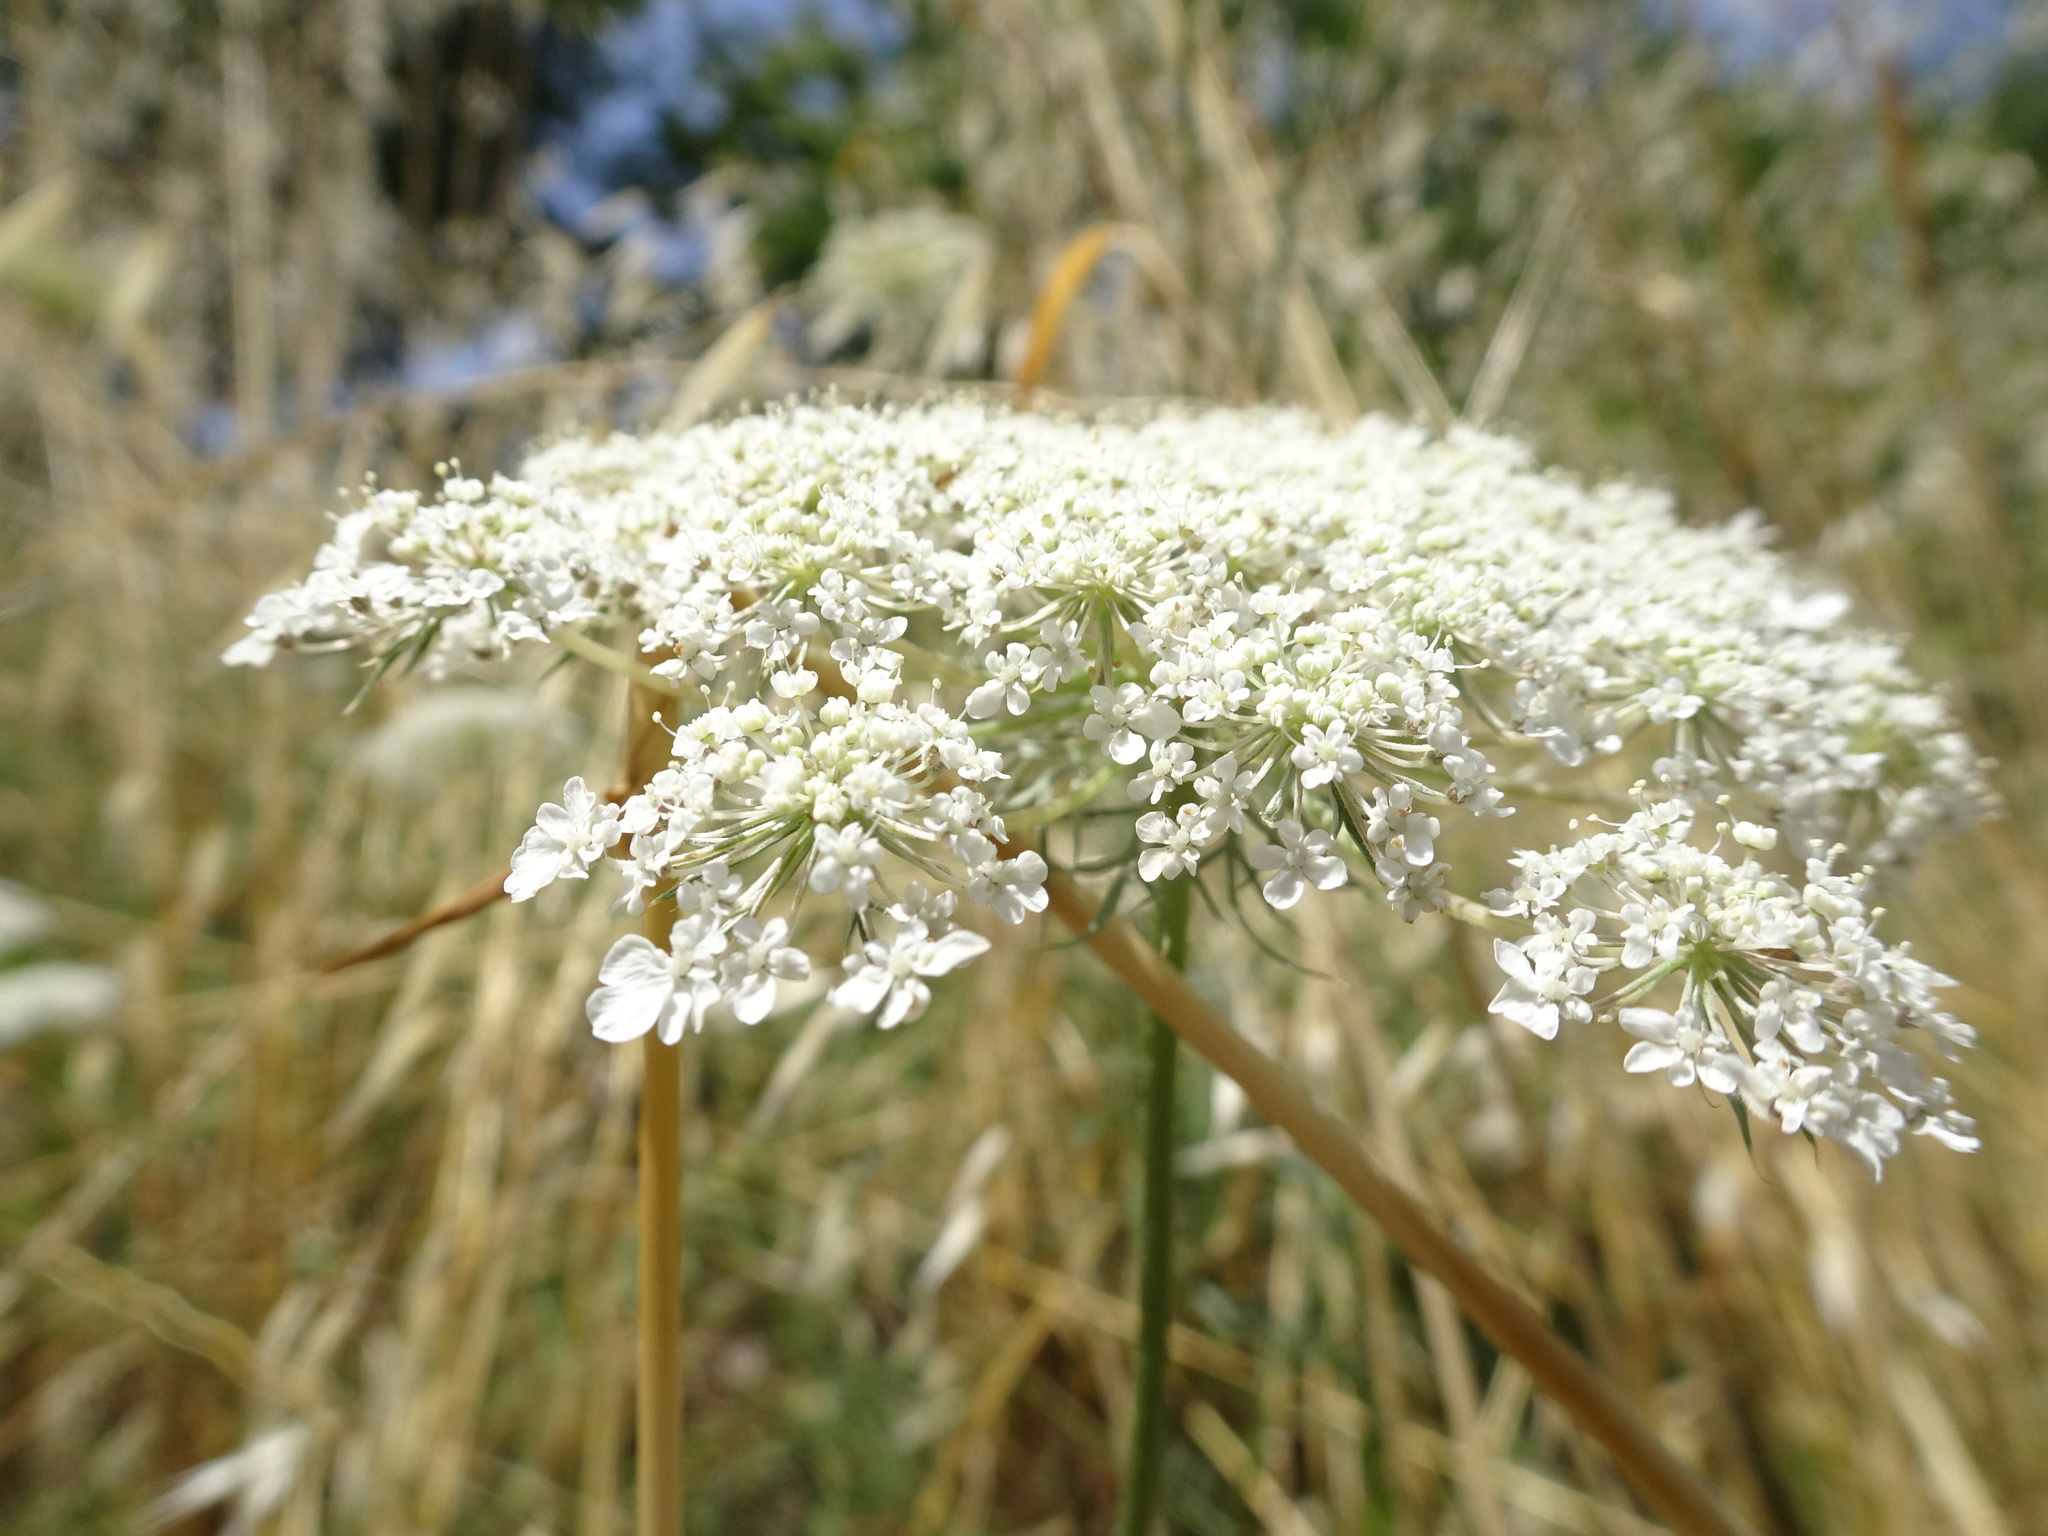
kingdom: Plantae
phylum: Tracheophyta
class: Magnoliopsida
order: Apiales
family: Apiaceae
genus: Daucus
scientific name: Daucus carota
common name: Wild carrot
